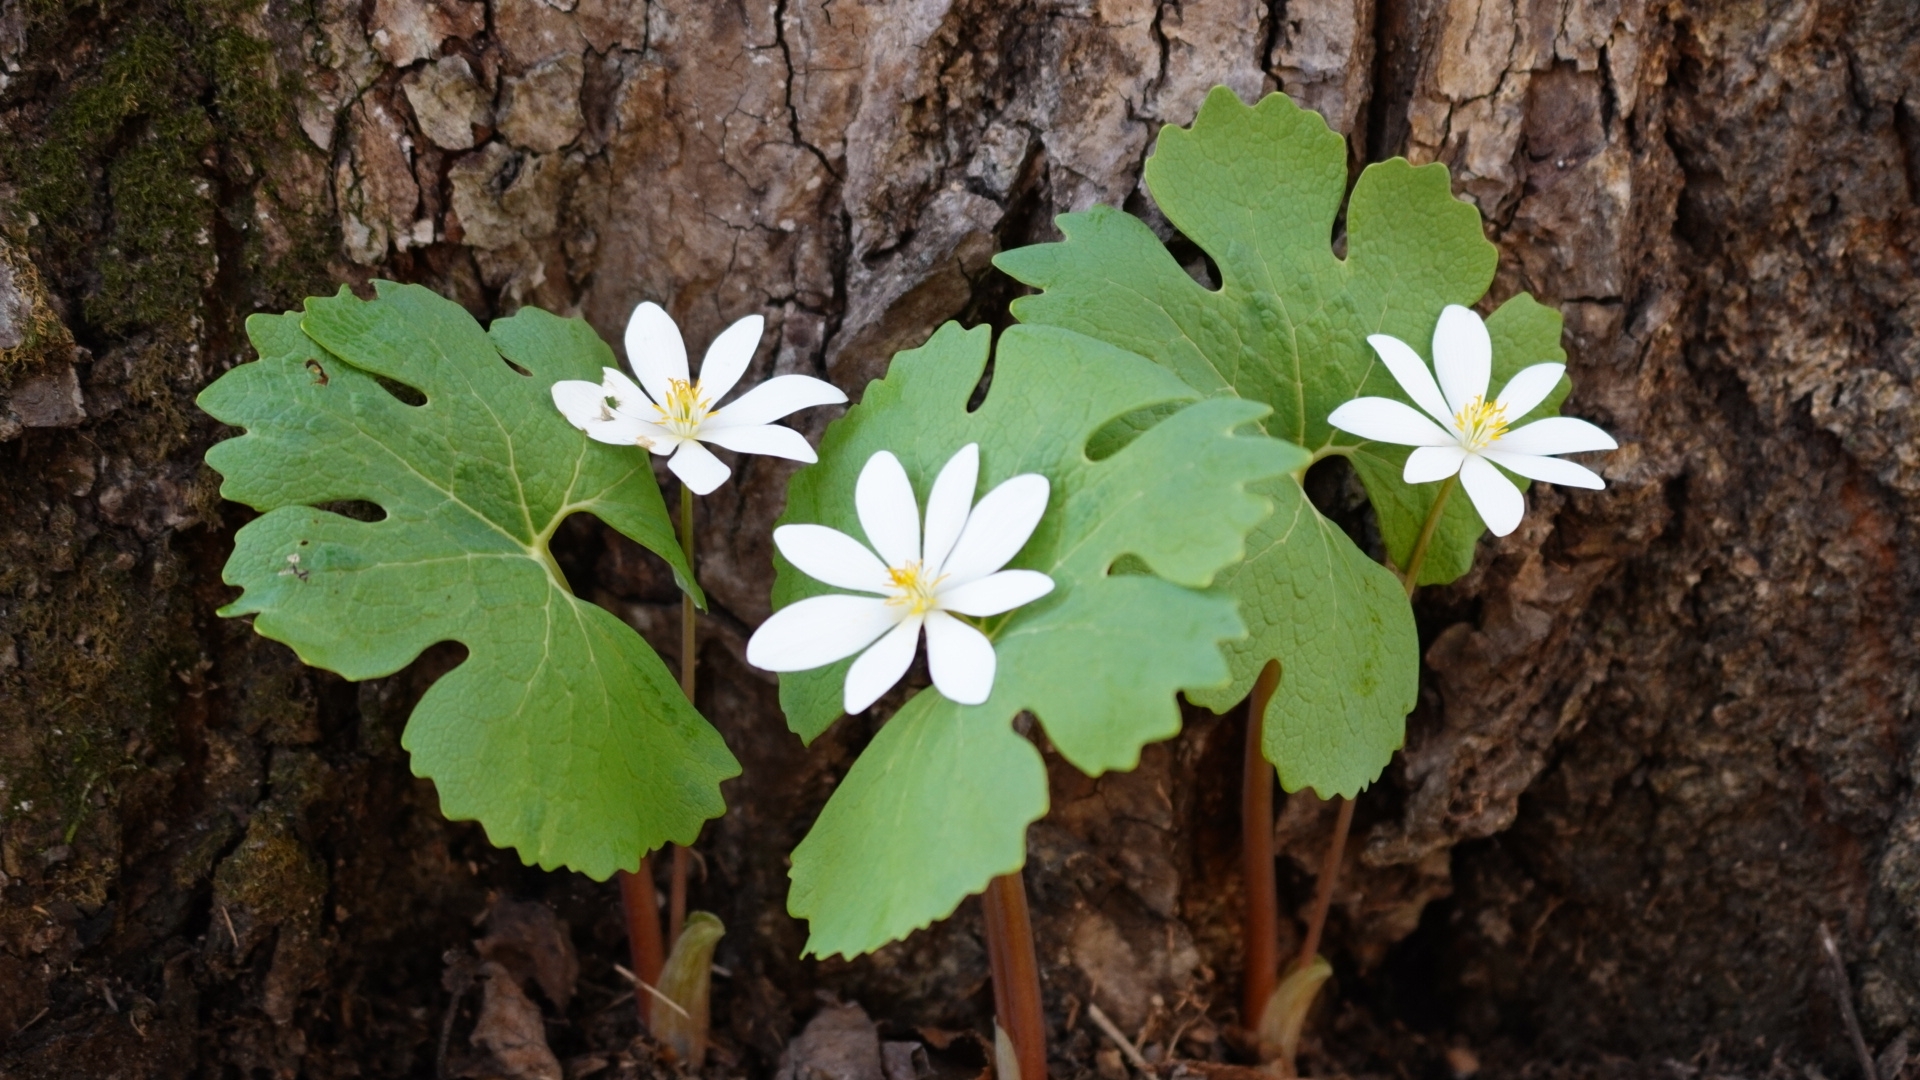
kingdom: Plantae
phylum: Tracheophyta
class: Magnoliopsida
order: Ranunculales
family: Papaveraceae
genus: Sanguinaria
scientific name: Sanguinaria canadensis
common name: Bloodroot
